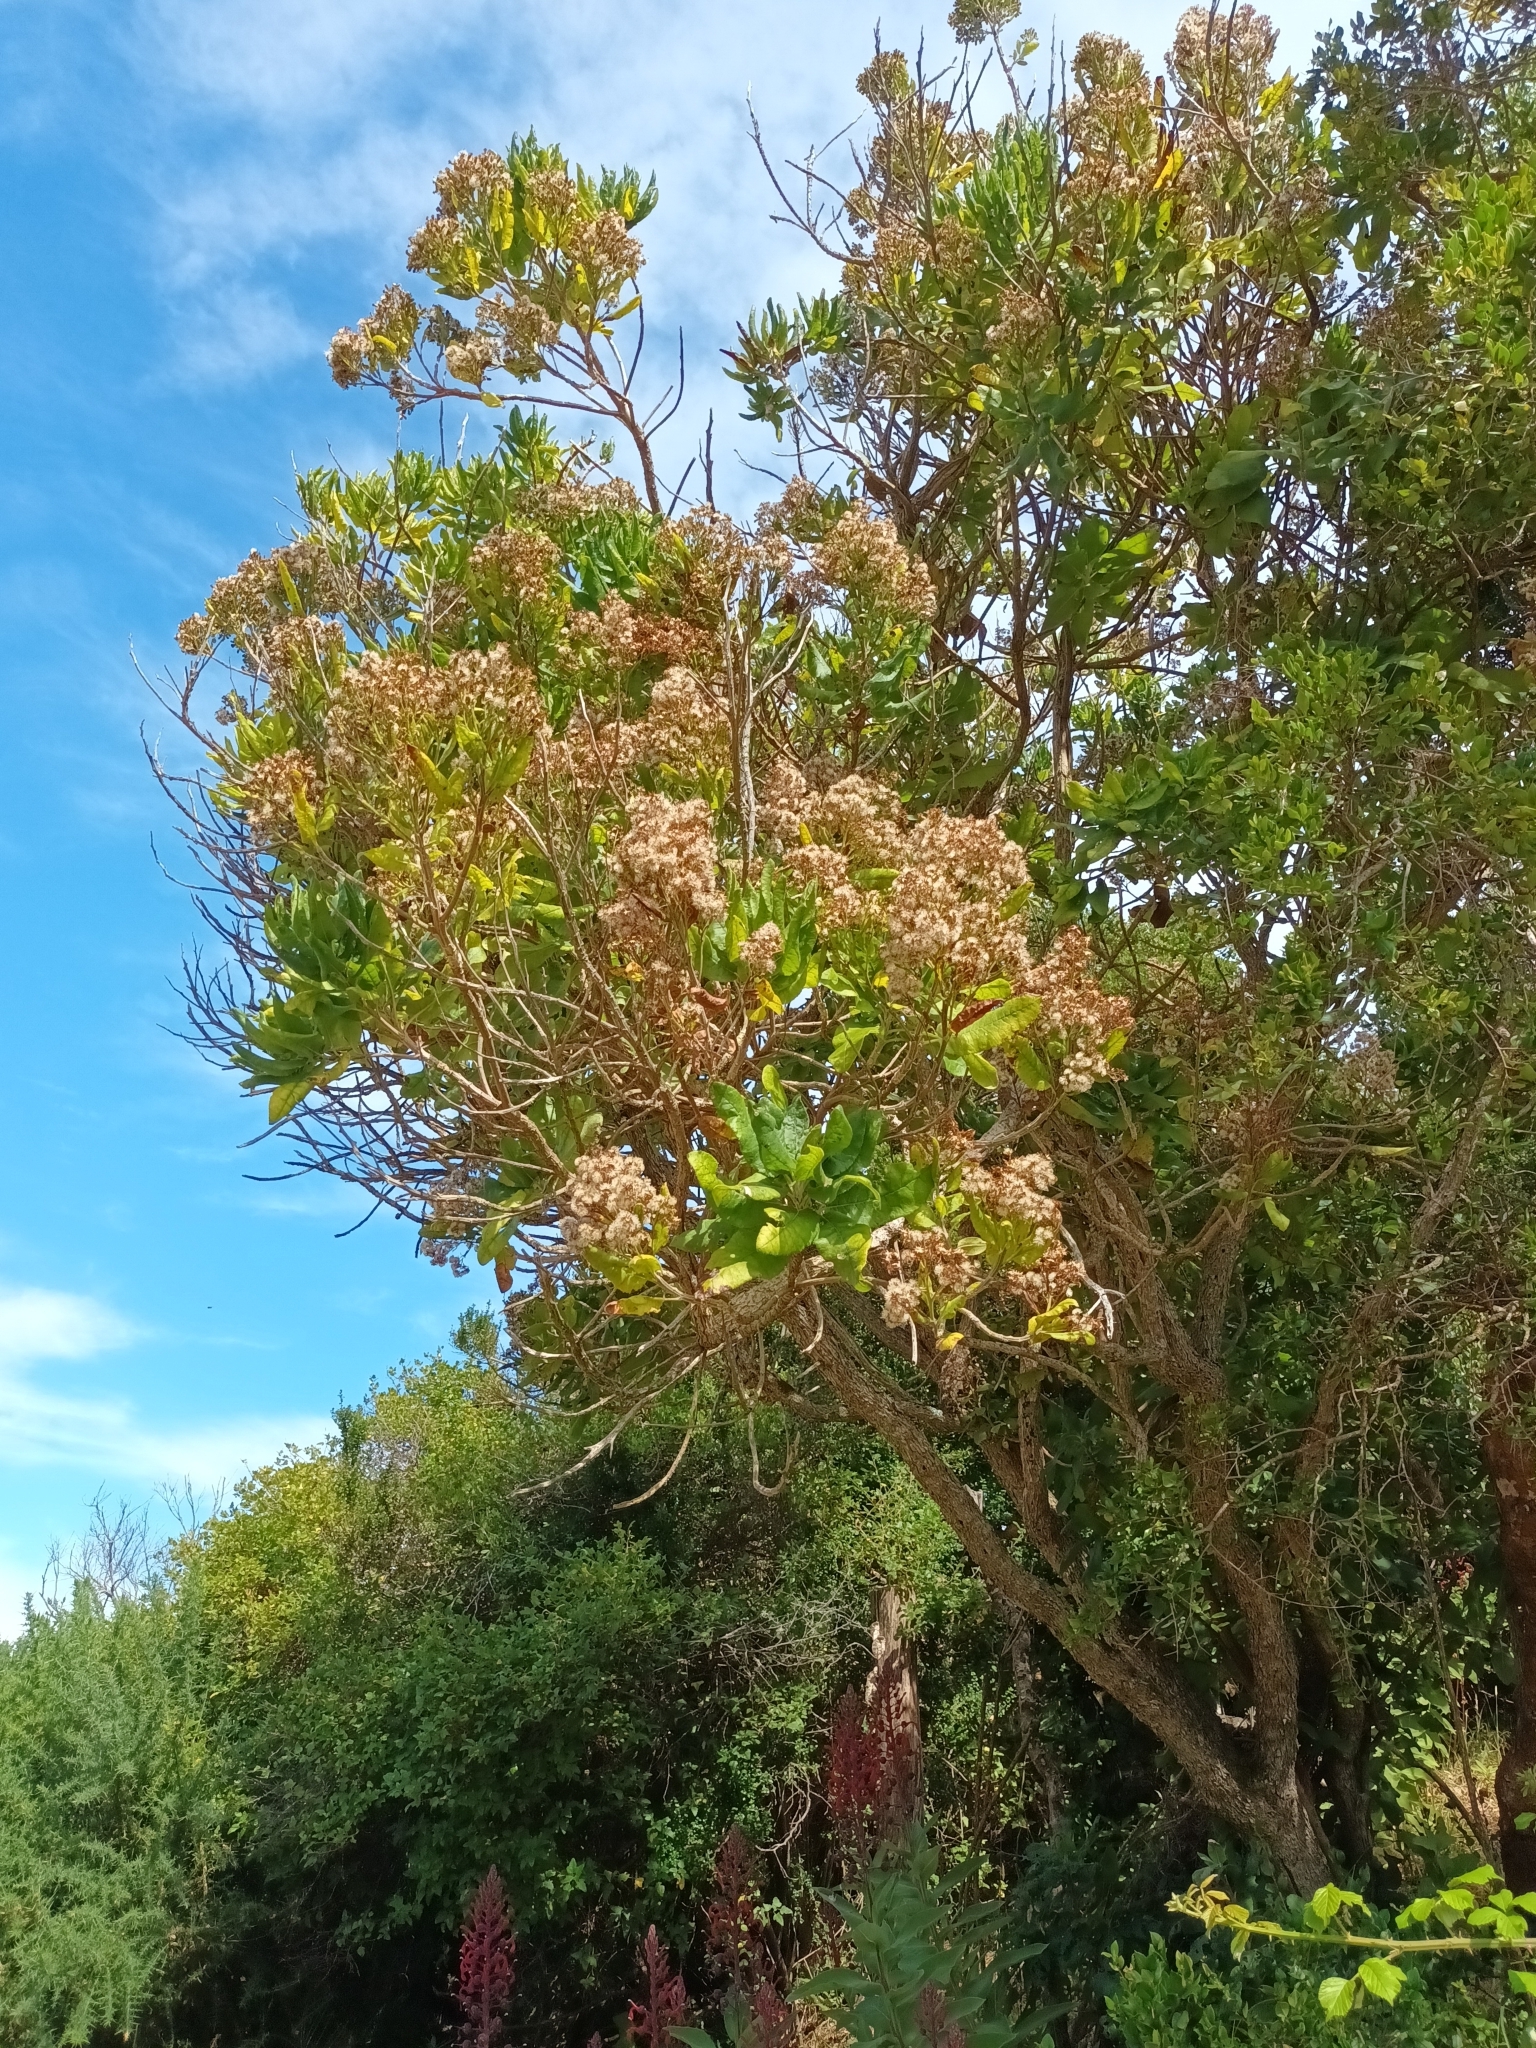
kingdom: Plantae
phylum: Tracheophyta
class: Magnoliopsida
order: Asterales
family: Asteraceae
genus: Acrisione
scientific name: Acrisione denticulata
